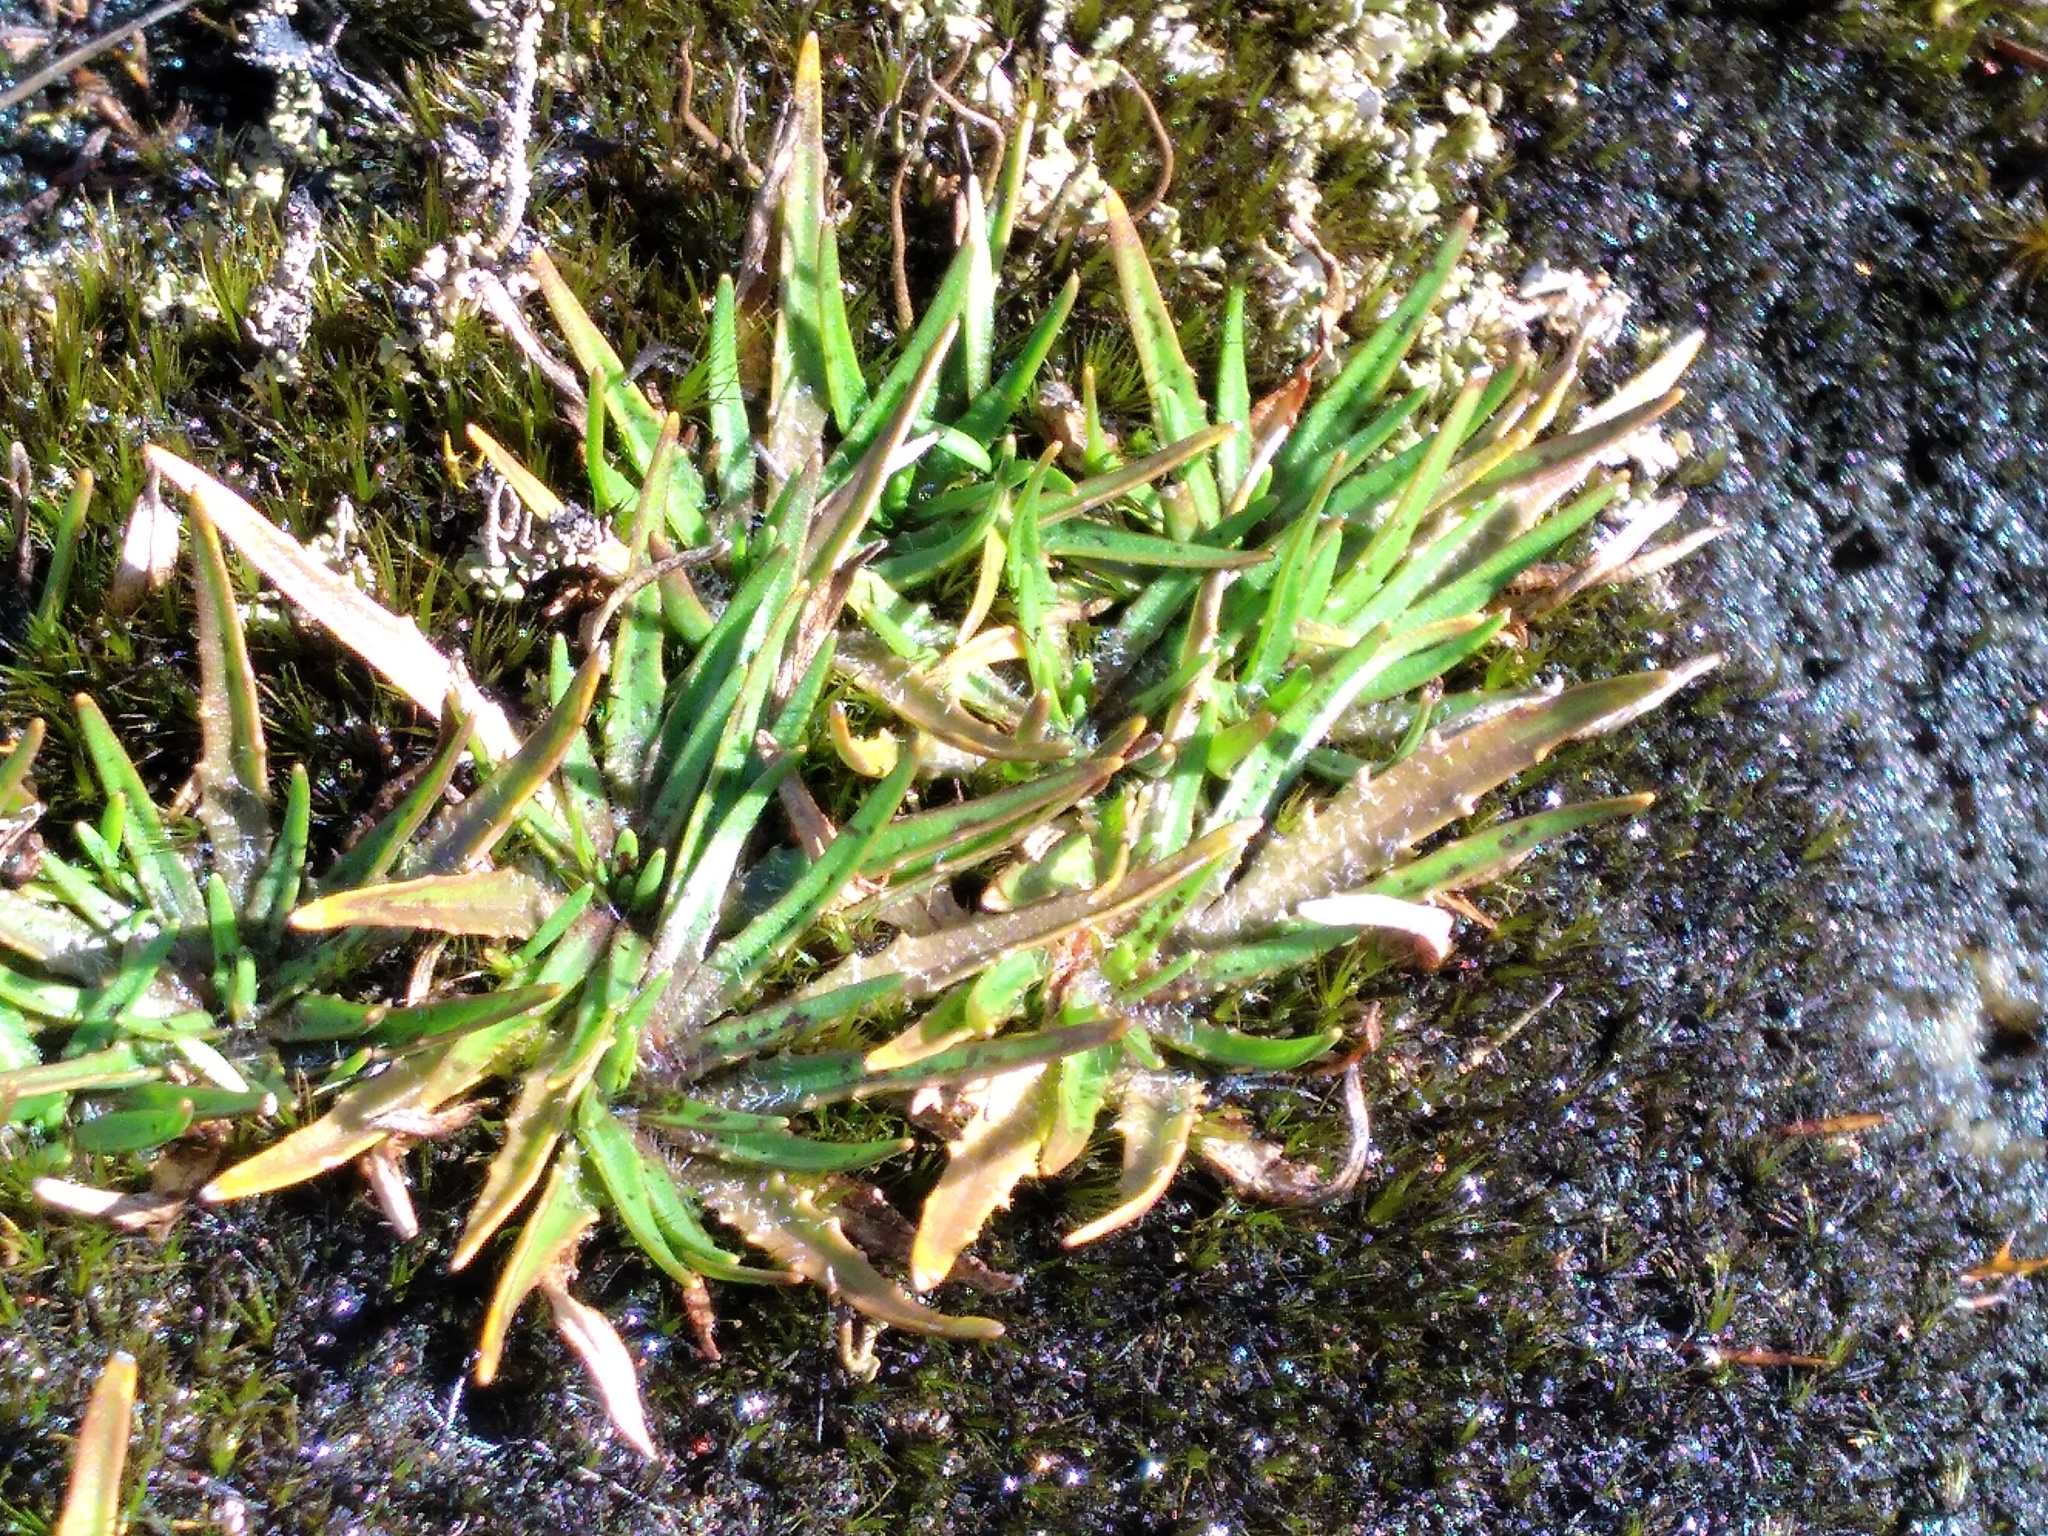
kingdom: Plantae
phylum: Tracheophyta
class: Magnoliopsida
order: Lamiales
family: Plantaginaceae
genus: Plantago
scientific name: Plantago triandra
